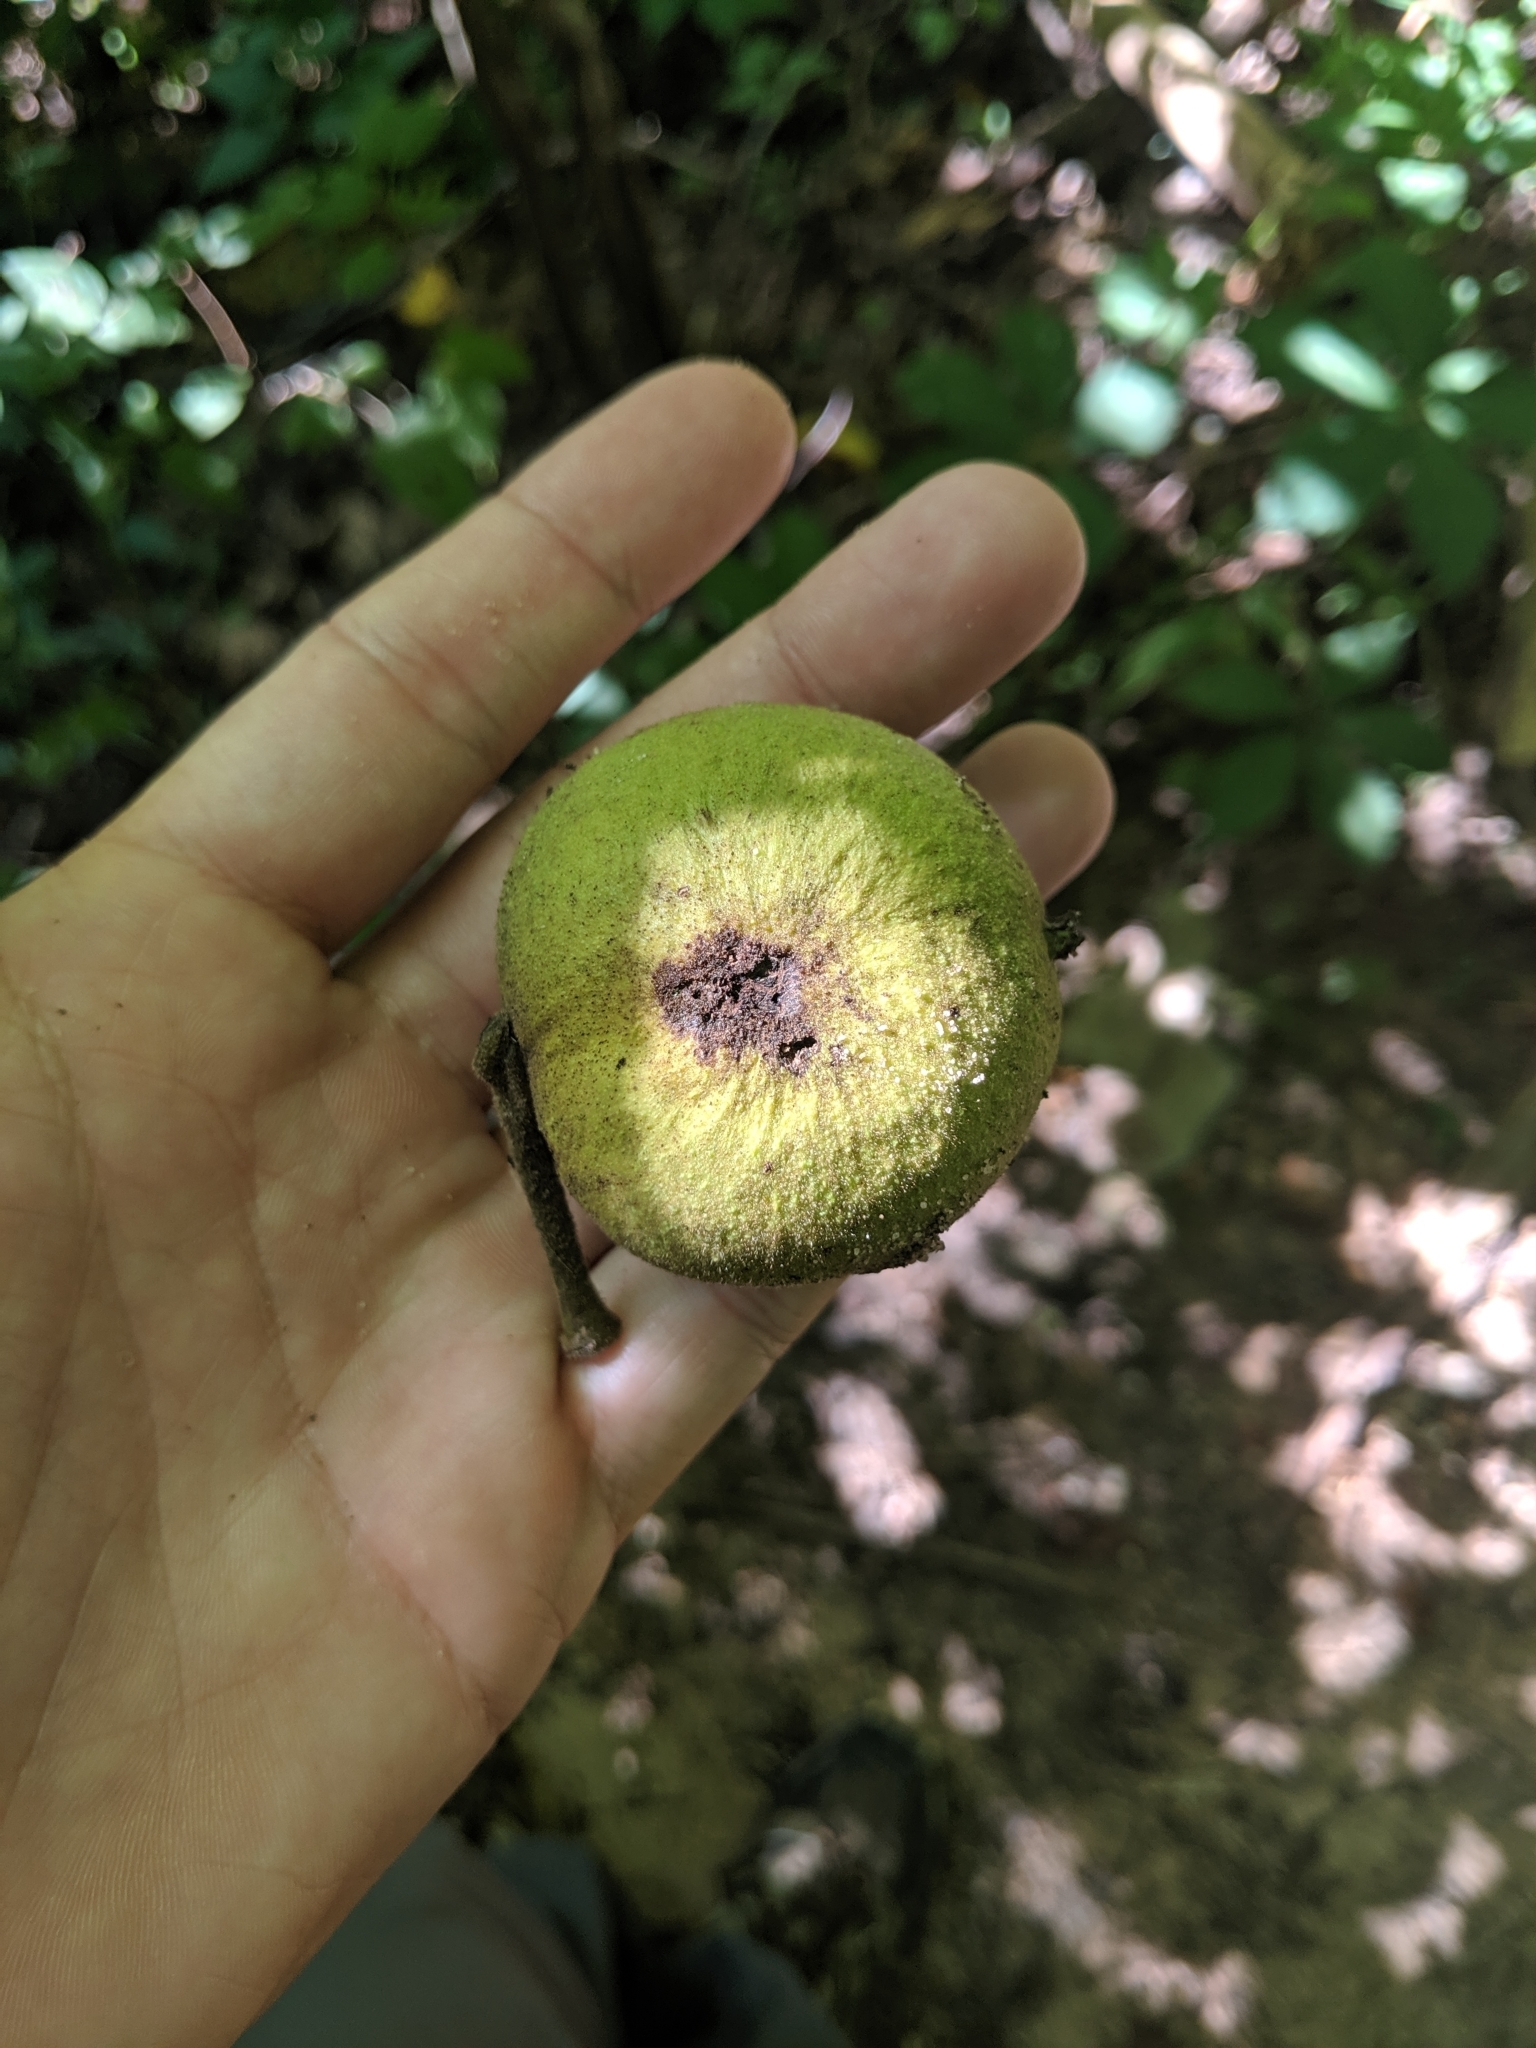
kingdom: Plantae
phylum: Tracheophyta
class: Magnoliopsida
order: Fagales
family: Juglandaceae
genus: Juglans
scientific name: Juglans nigra
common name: Black walnut
